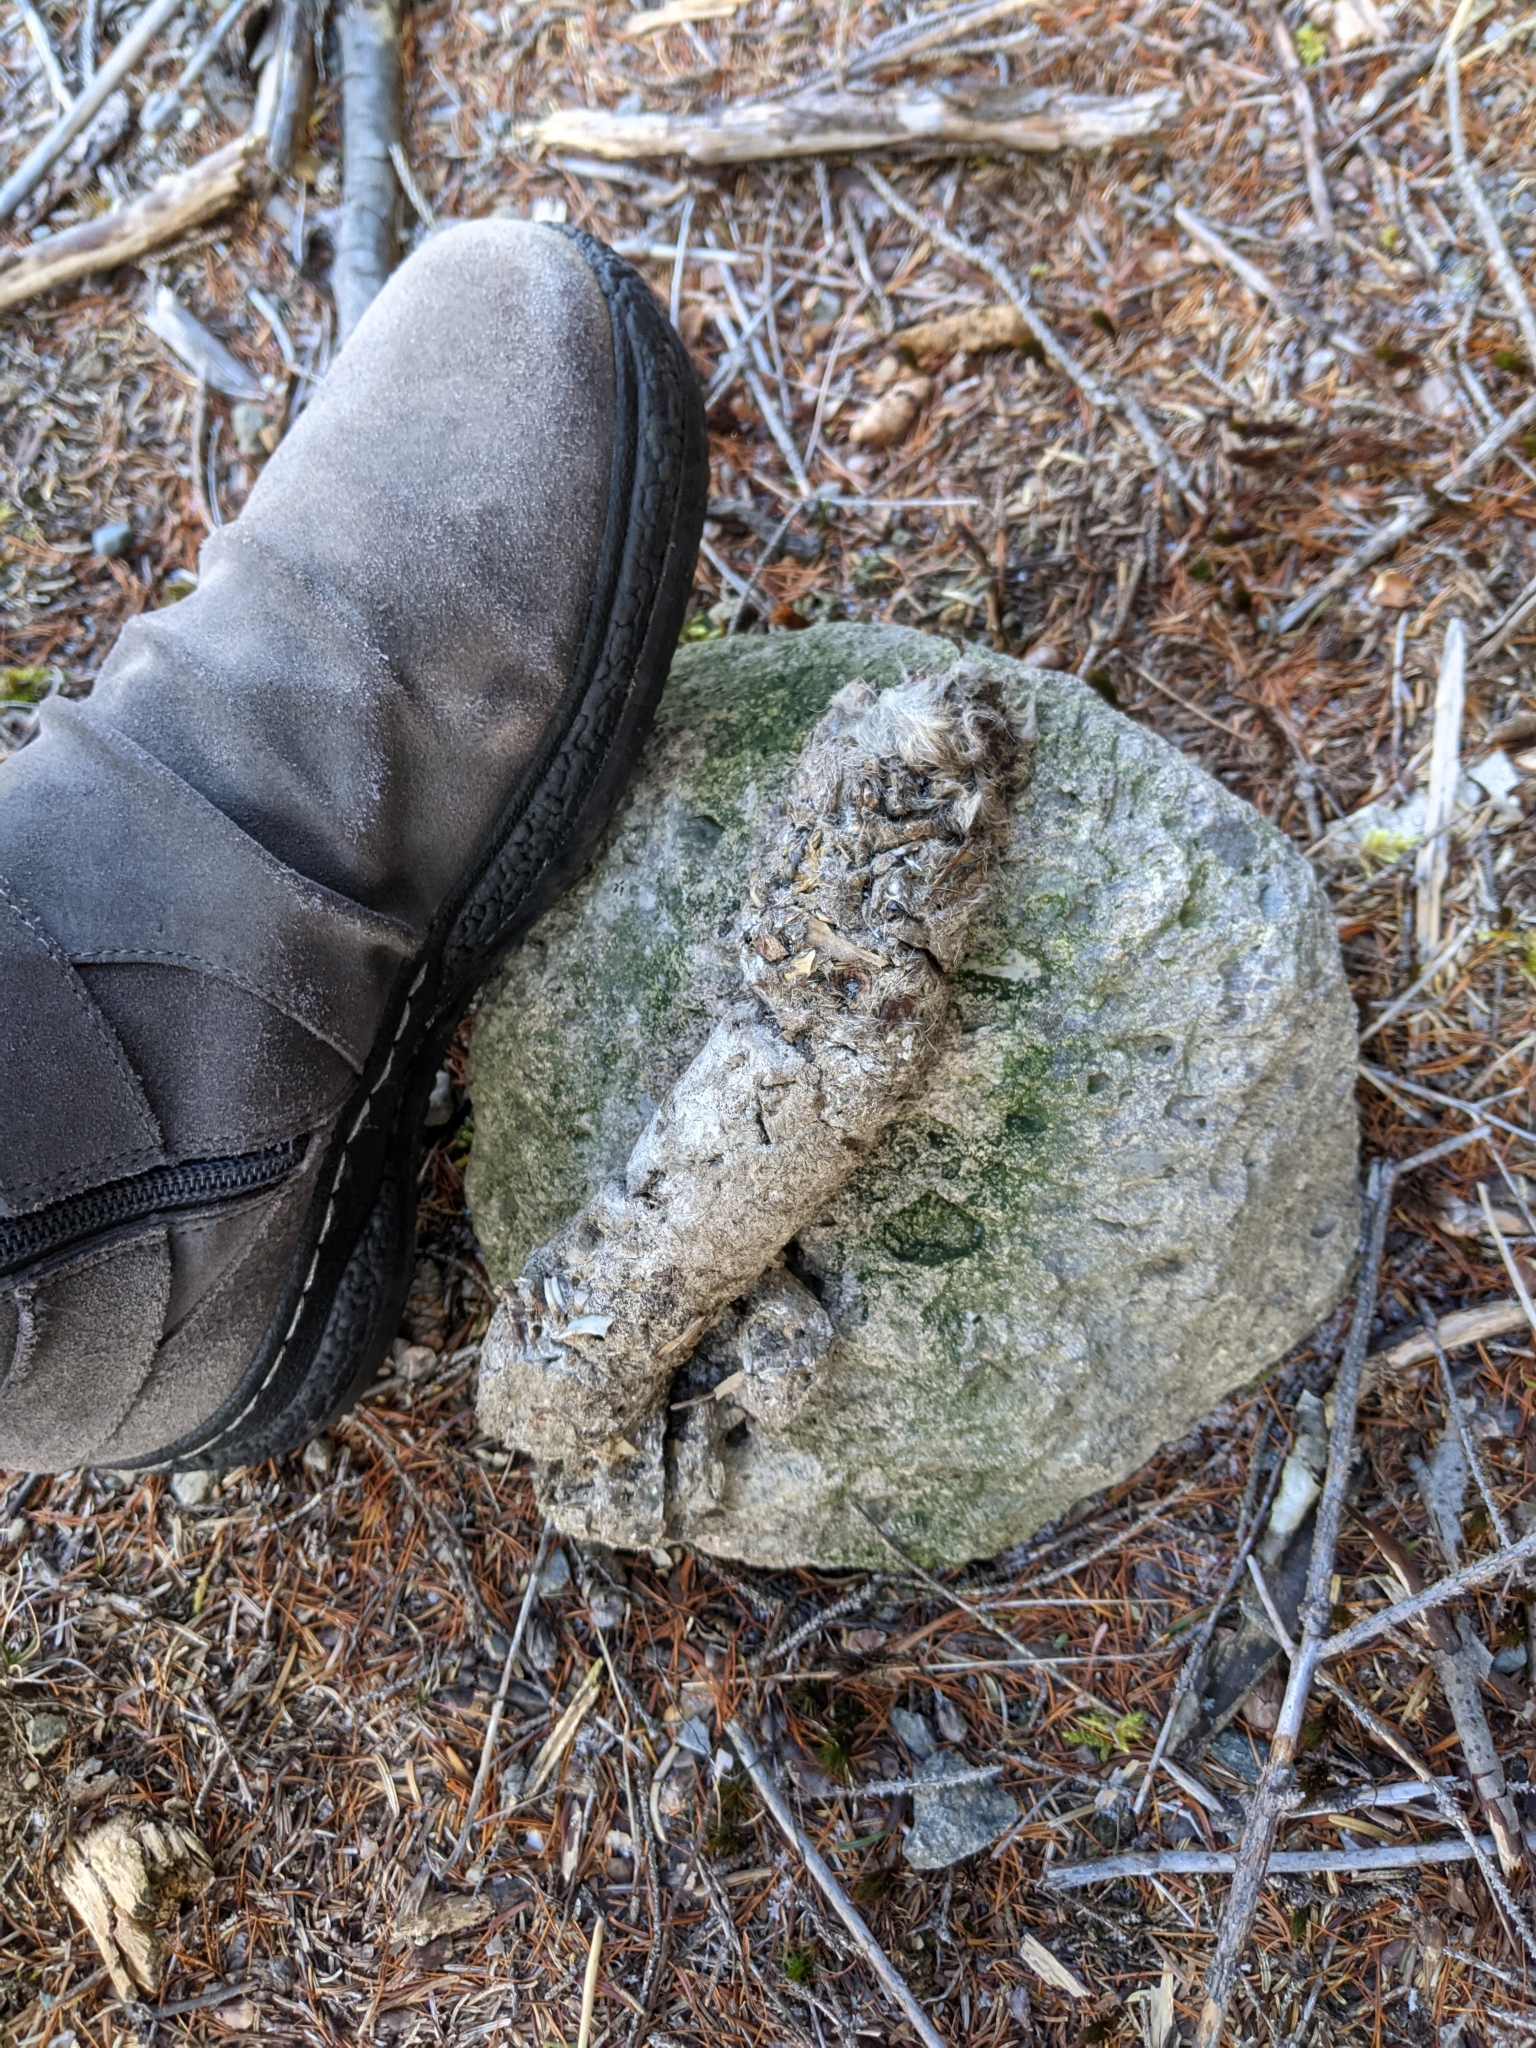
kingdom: Animalia
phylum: Chordata
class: Mammalia
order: Carnivora
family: Canidae
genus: Canis
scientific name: Canis latrans
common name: Coyote
